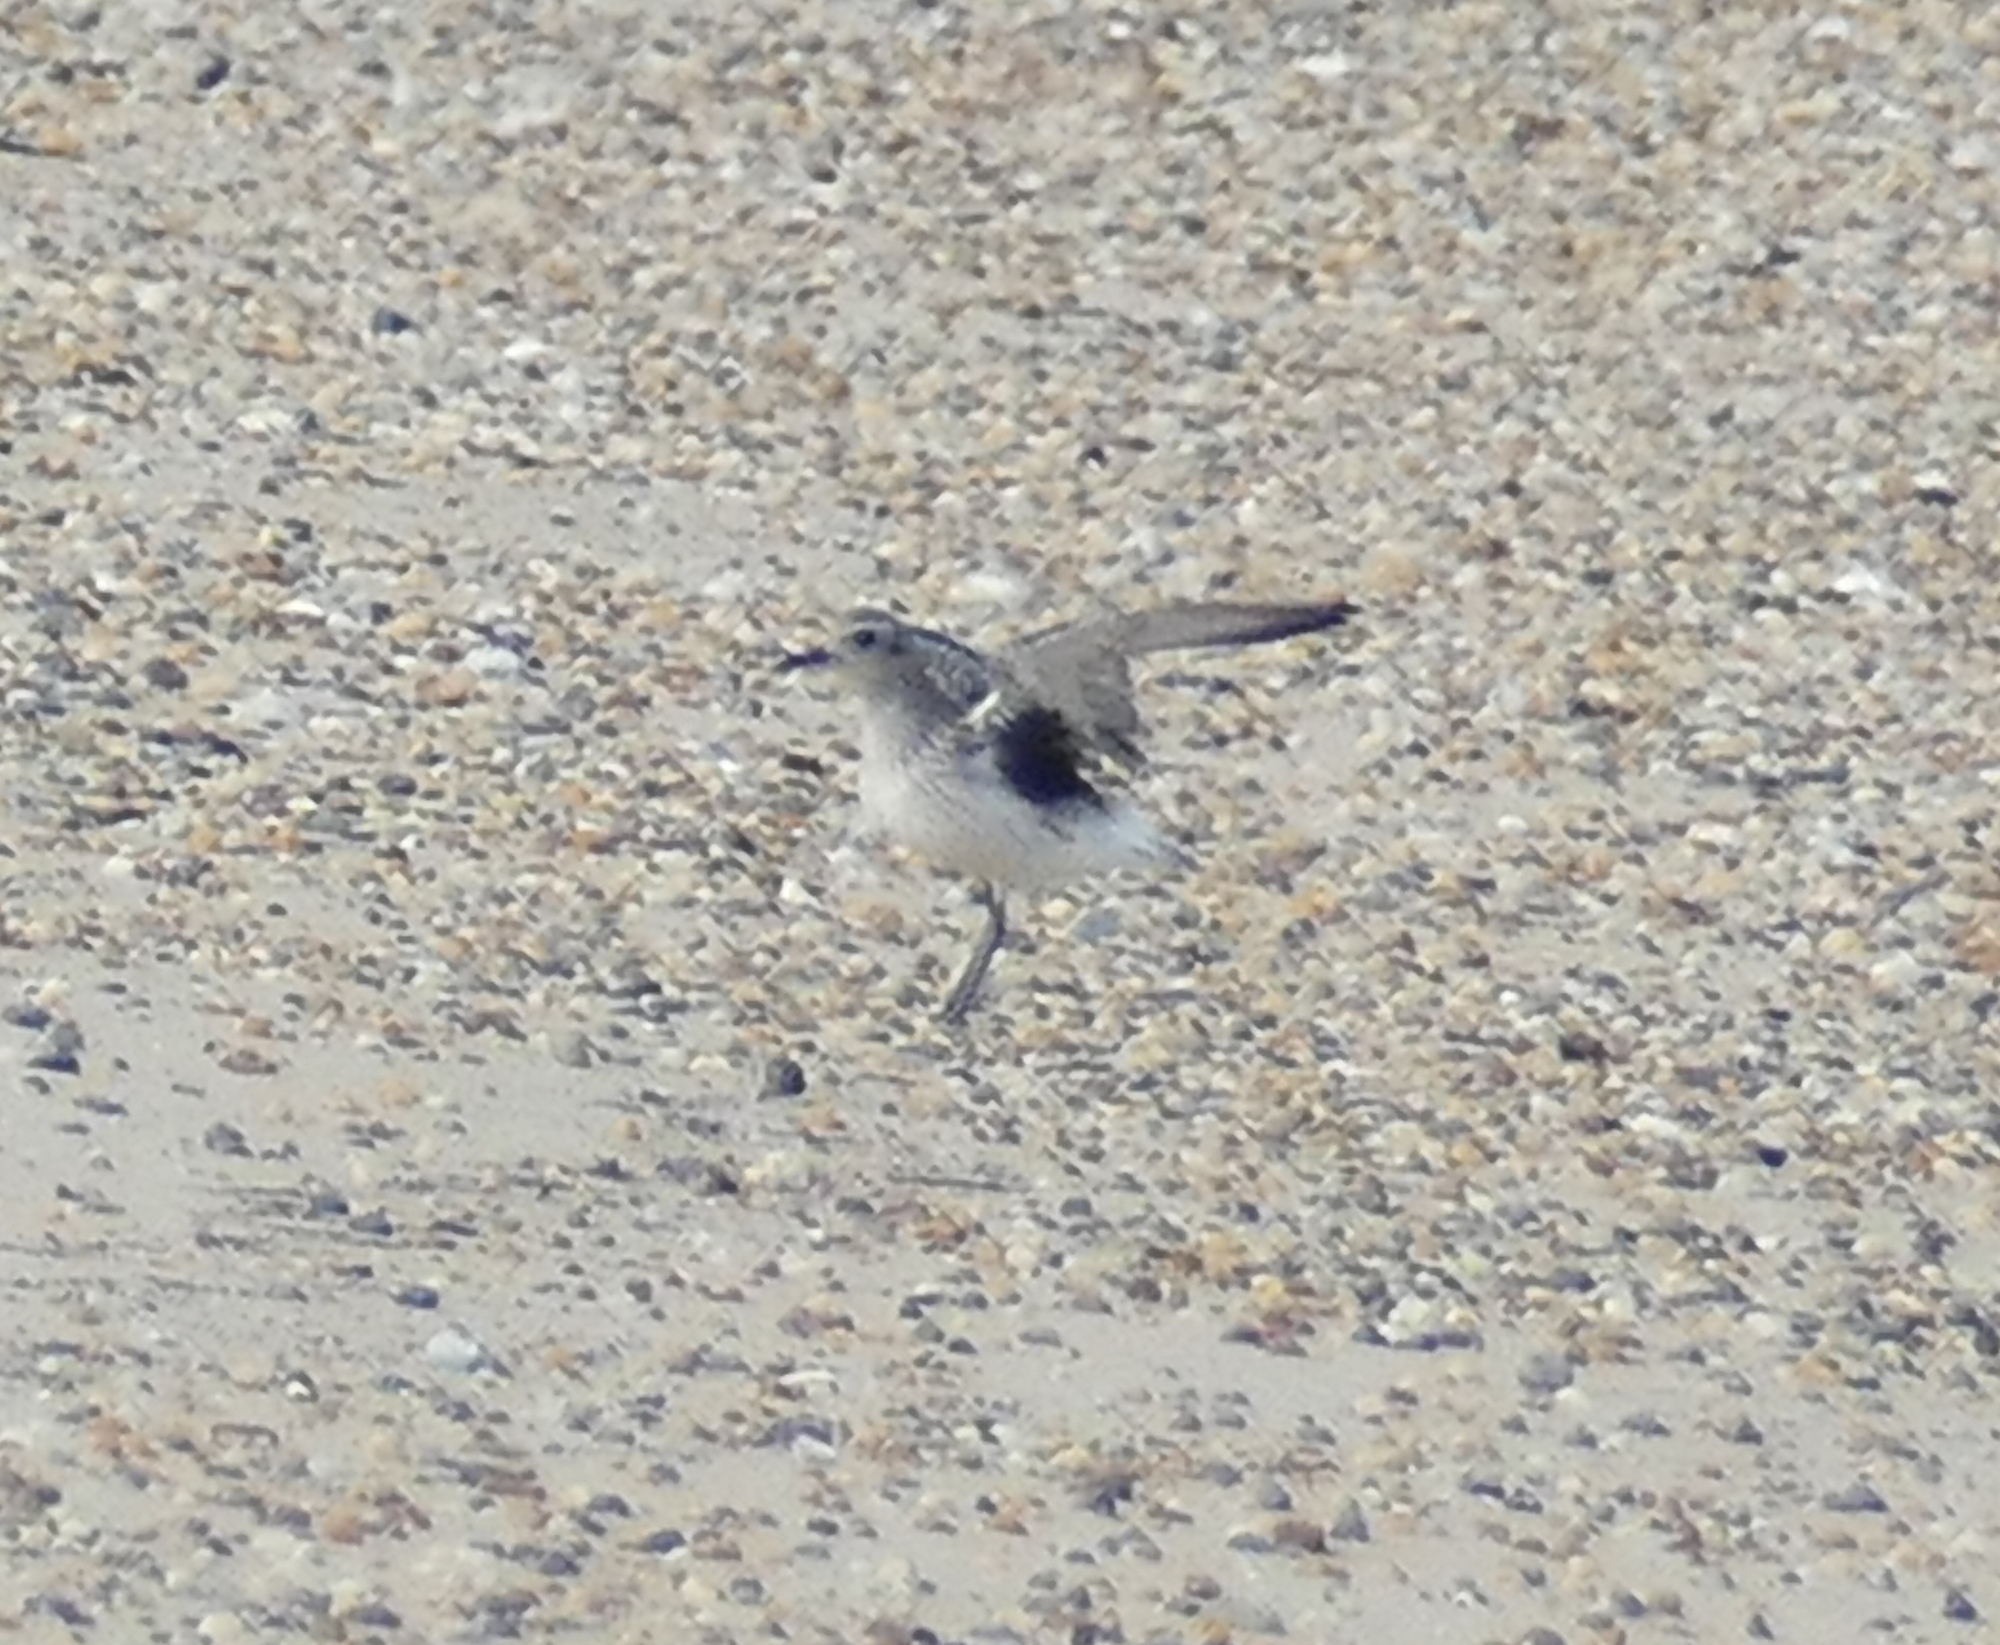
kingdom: Animalia
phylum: Chordata
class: Aves
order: Charadriiformes
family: Charadriidae
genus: Pluvialis
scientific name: Pluvialis squatarola
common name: Grey plover
